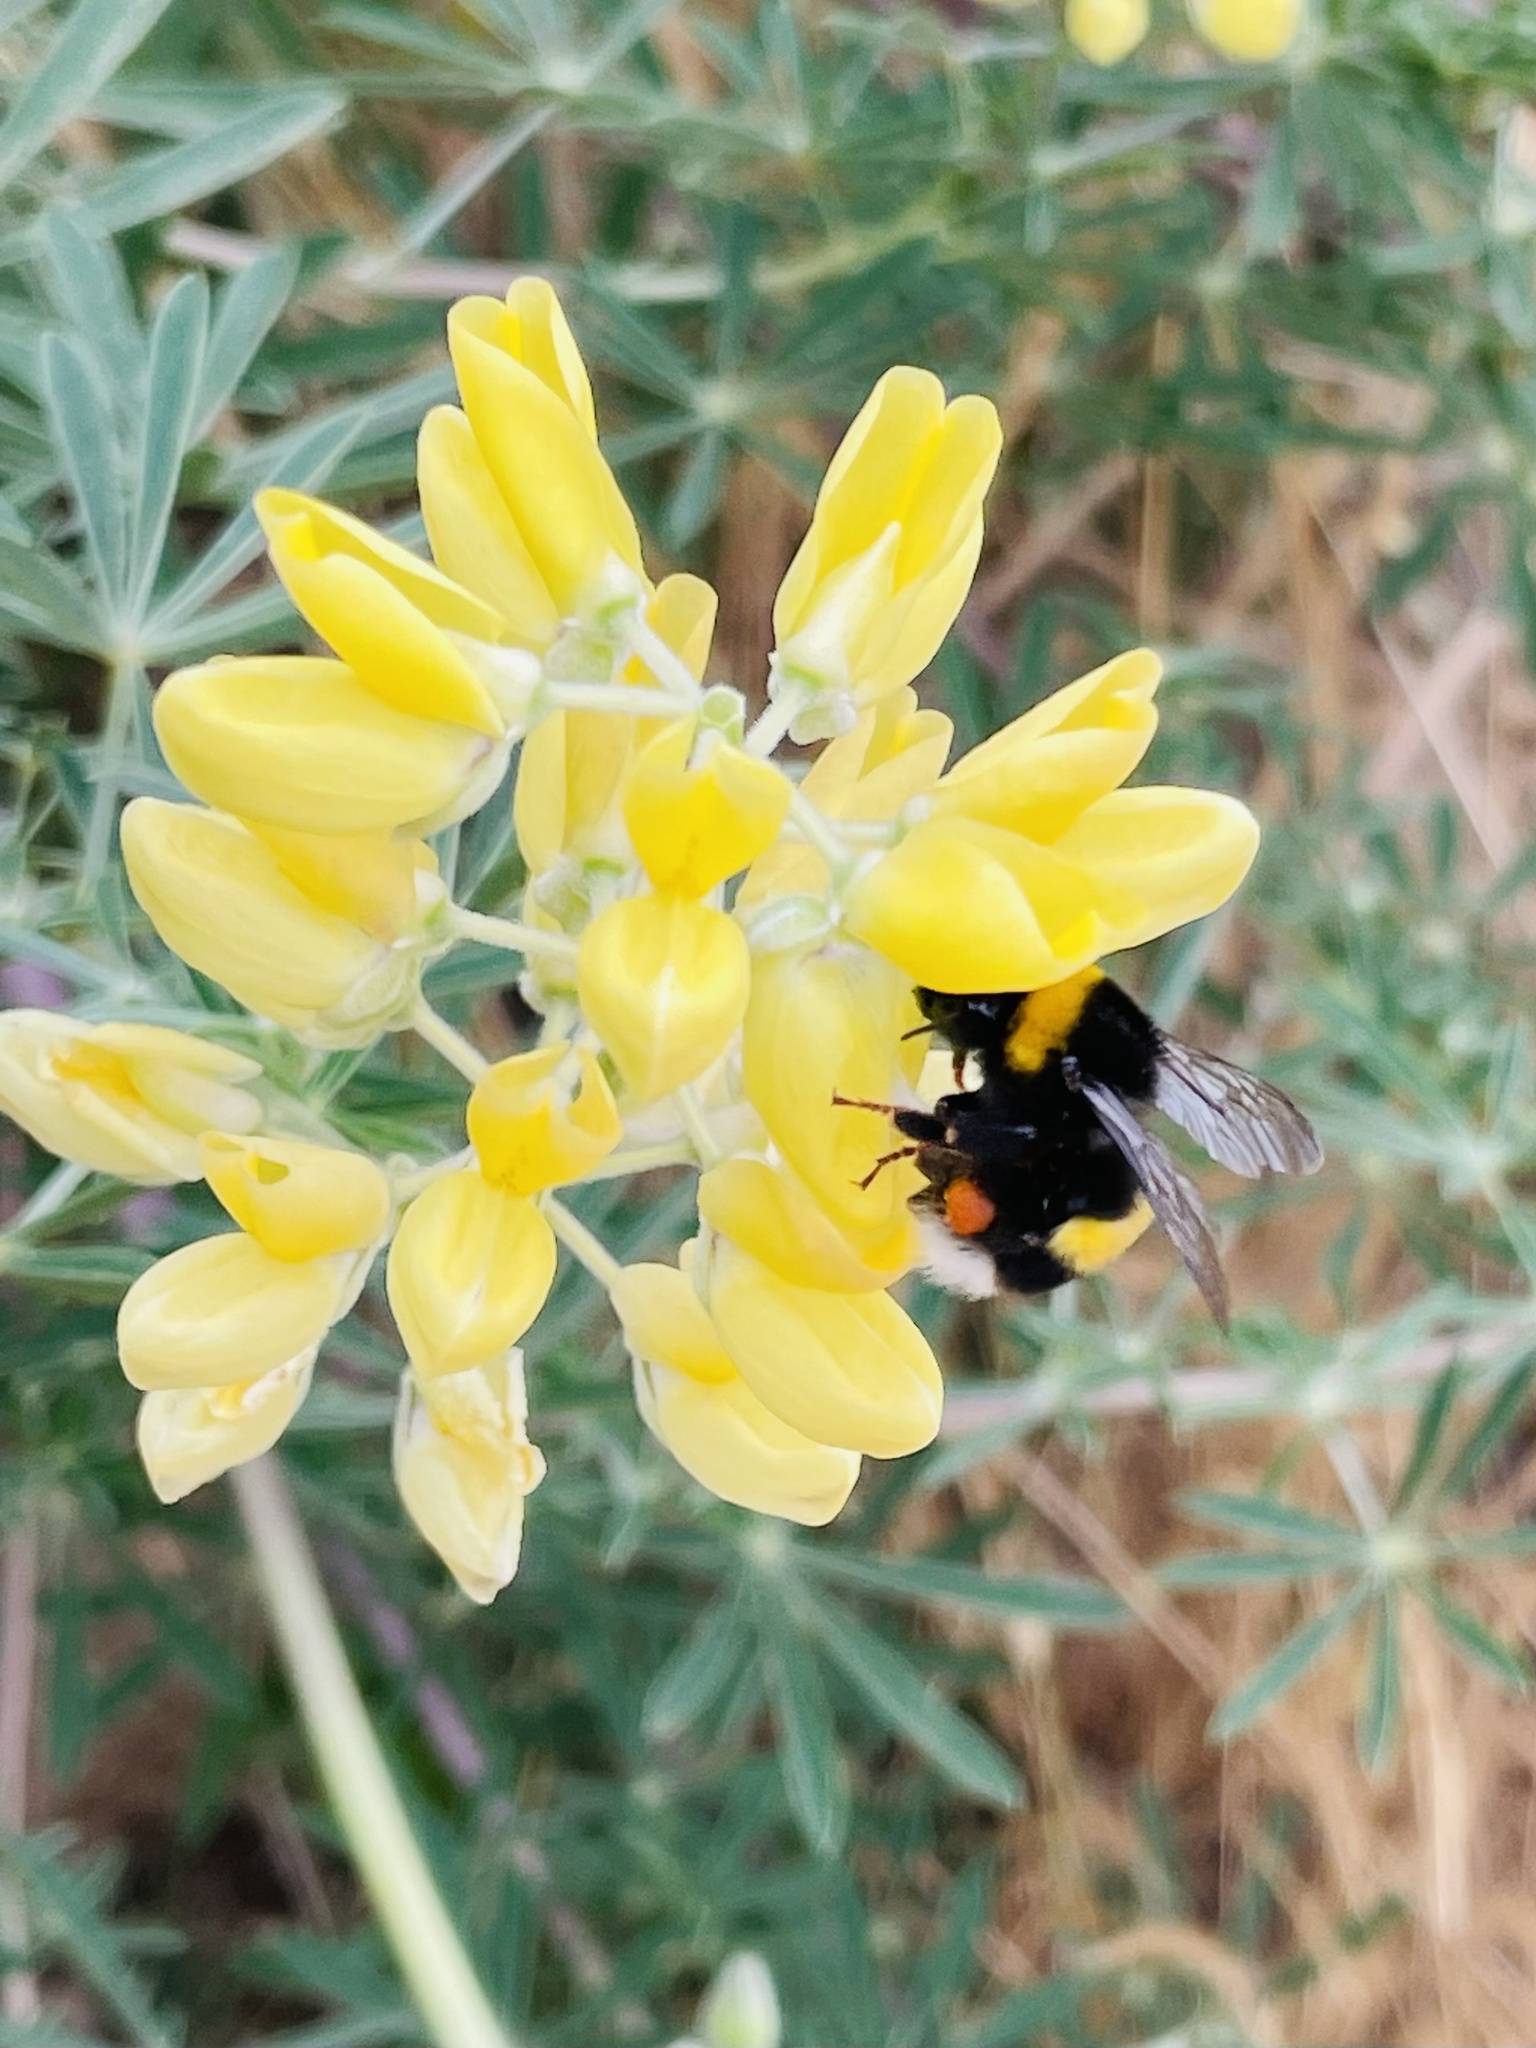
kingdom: Animalia
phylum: Arthropoda
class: Insecta
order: Hymenoptera
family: Apidae
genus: Bombus
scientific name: Bombus terrestris
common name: Buff-tailed bumblebee
